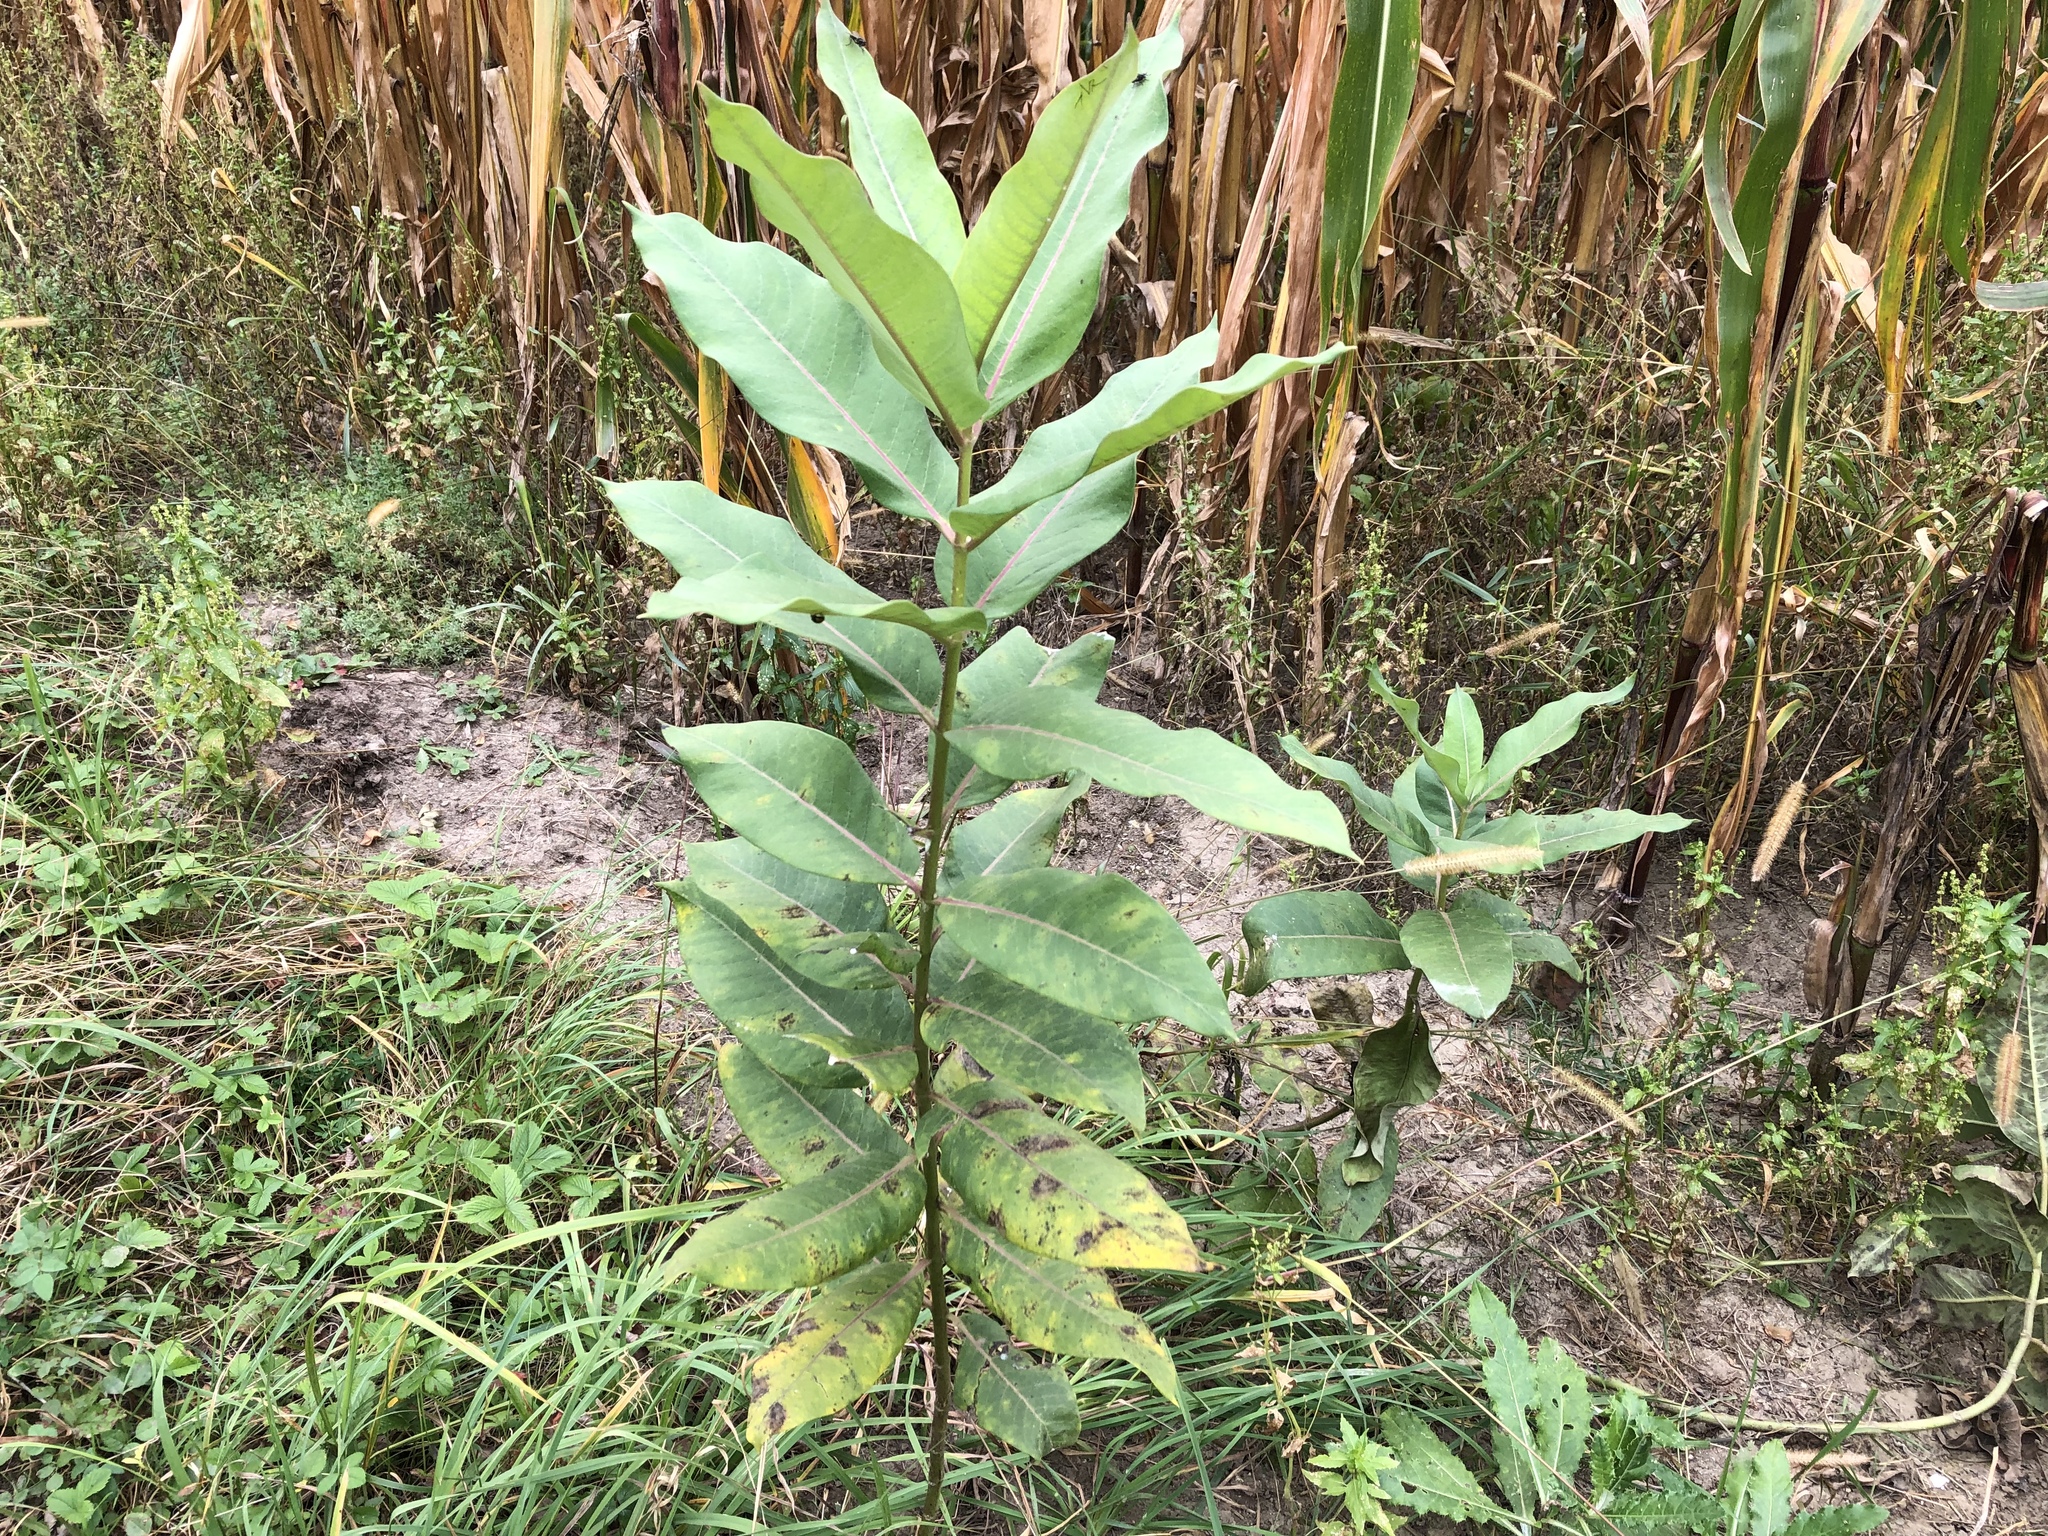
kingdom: Plantae
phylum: Tracheophyta
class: Magnoliopsida
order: Gentianales
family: Apocynaceae
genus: Asclepias
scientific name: Asclepias syriaca
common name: Common milkweed
